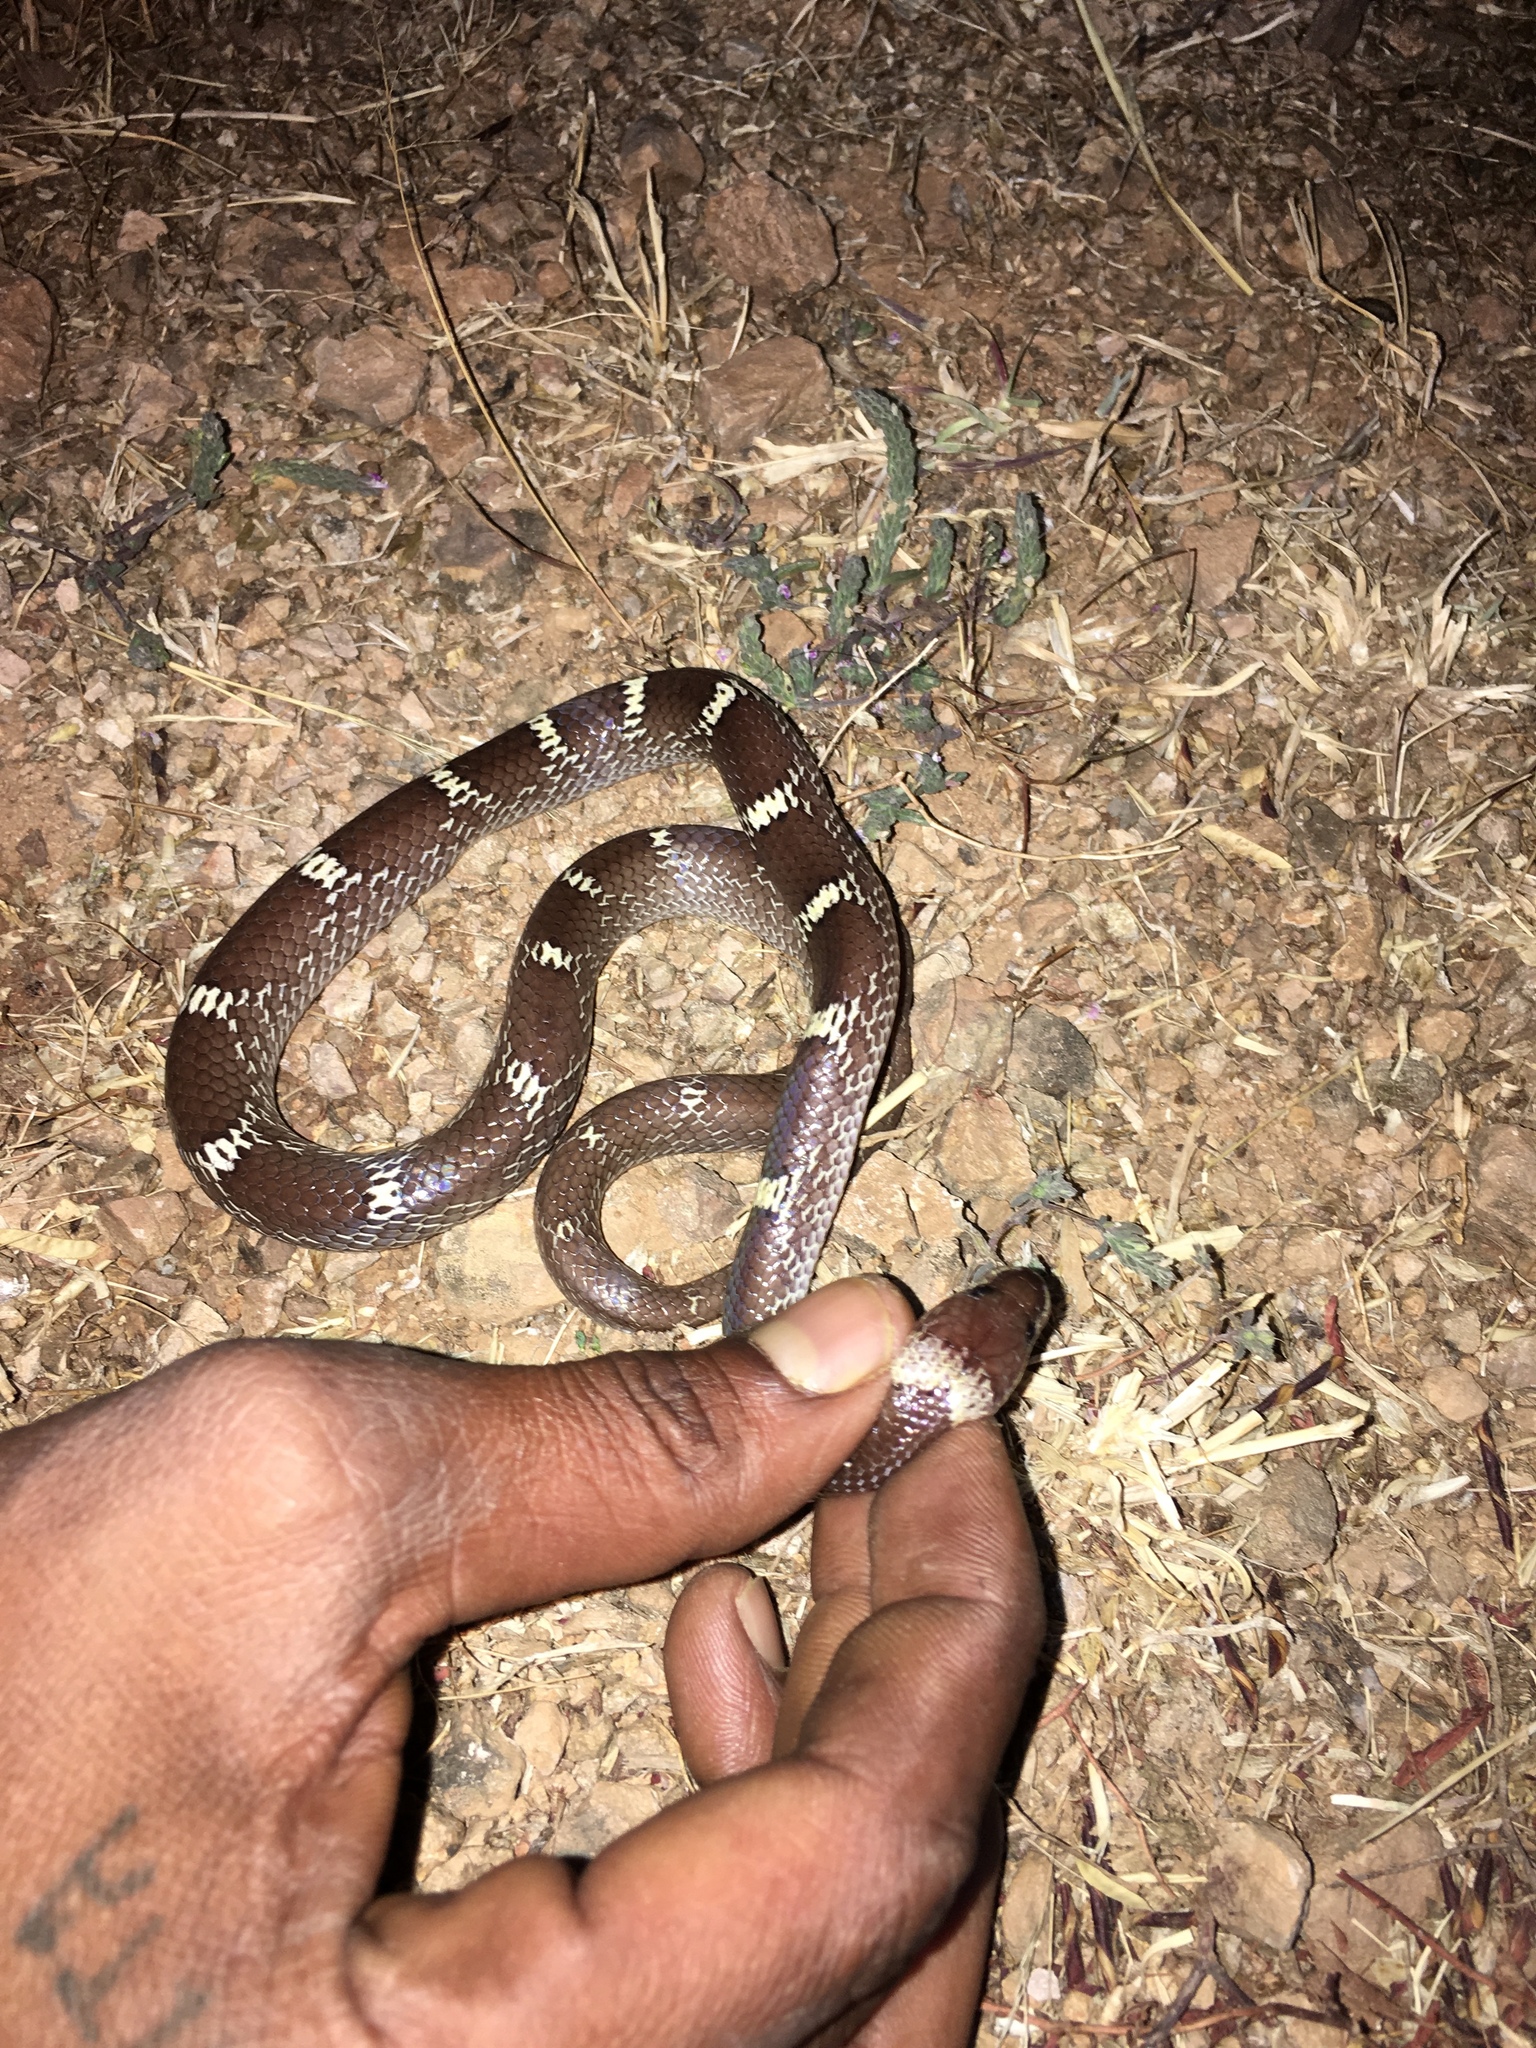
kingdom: Animalia
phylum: Chordata
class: Squamata
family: Colubridae
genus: Lycodon
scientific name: Lycodon aulicus
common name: Common wolf snake
